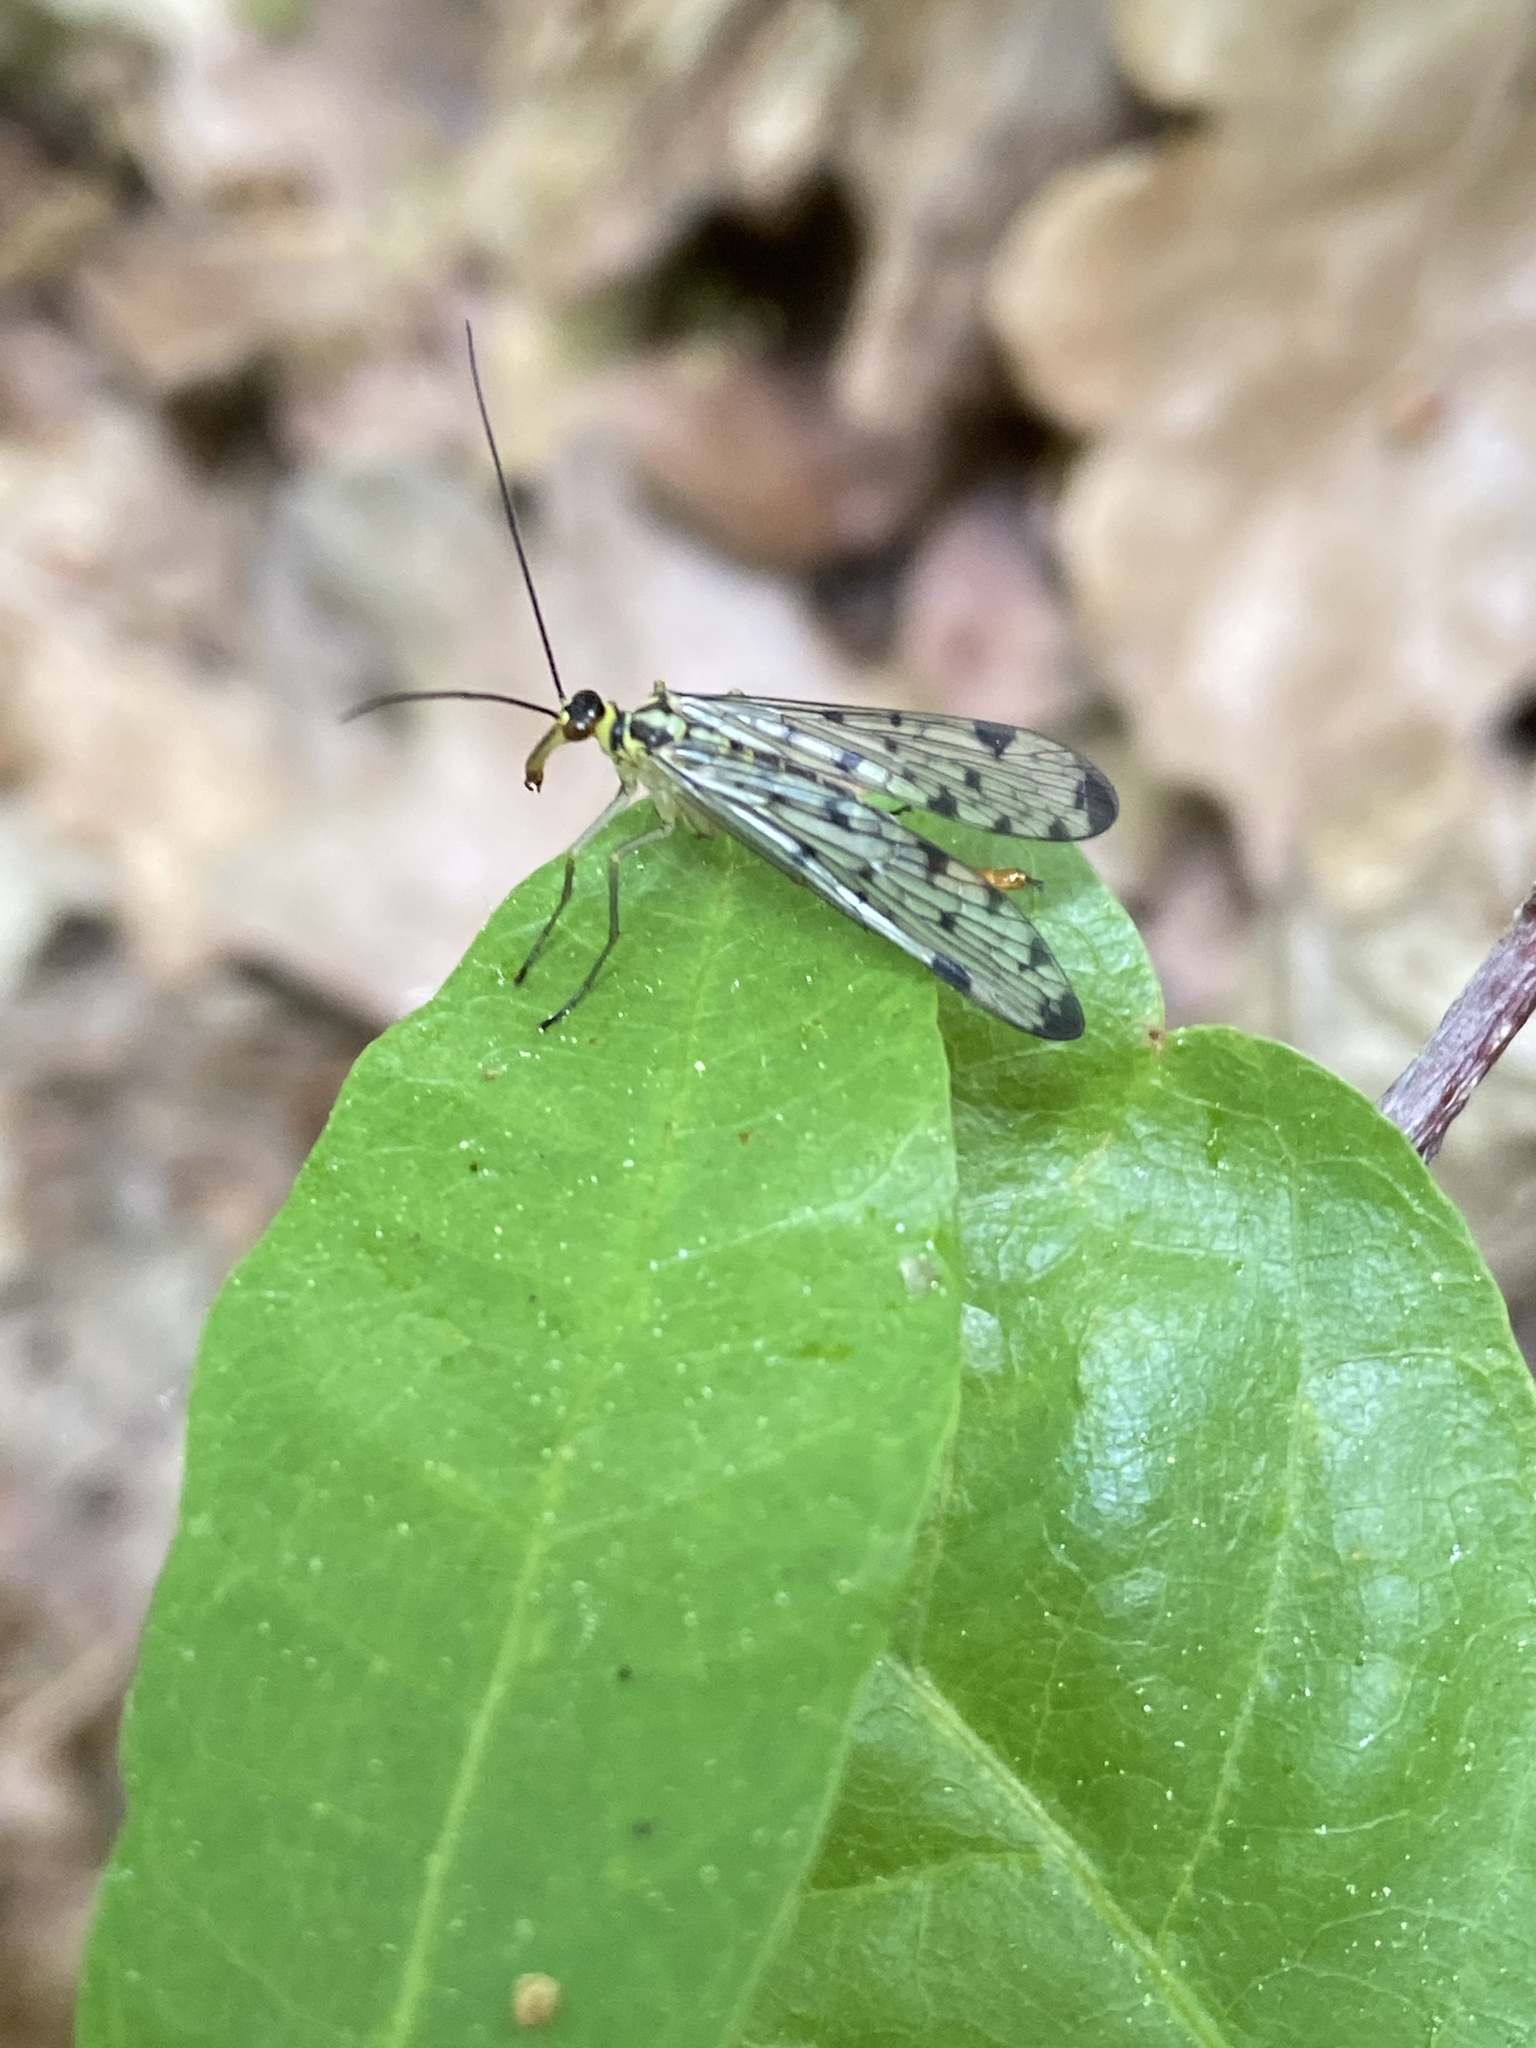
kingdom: Animalia
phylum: Arthropoda
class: Insecta
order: Mecoptera
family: Panorpidae
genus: Panorpa
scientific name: Panorpa germanica
